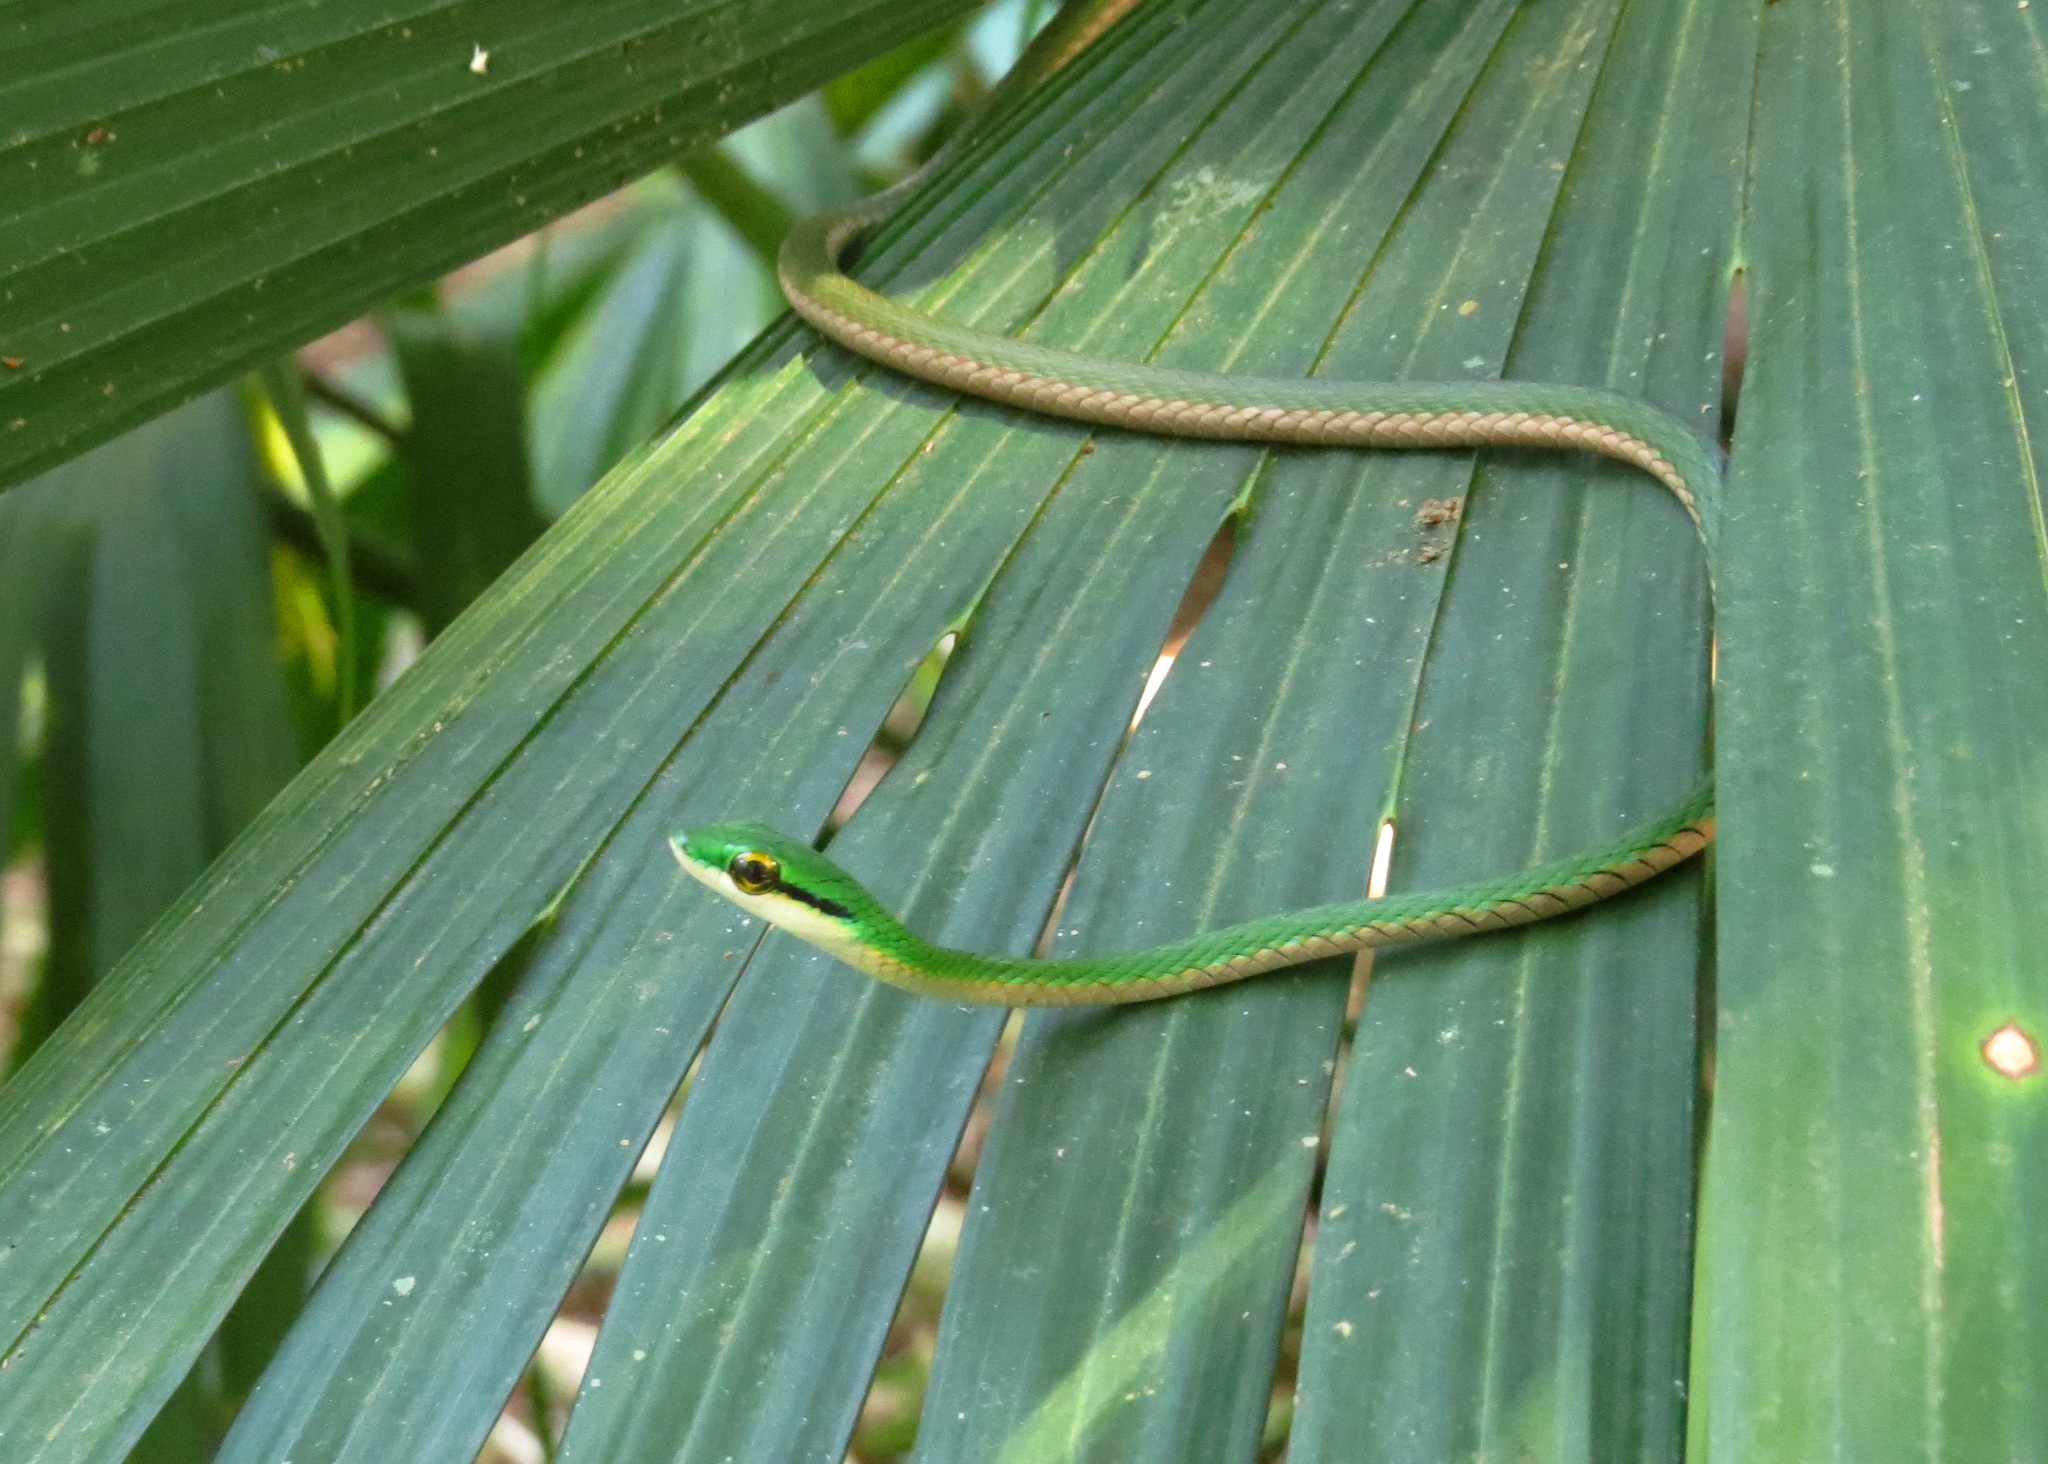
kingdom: Animalia
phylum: Chordata
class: Squamata
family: Colubridae
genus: Leptophis
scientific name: Leptophis ahaetulla
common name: Parrot snake
